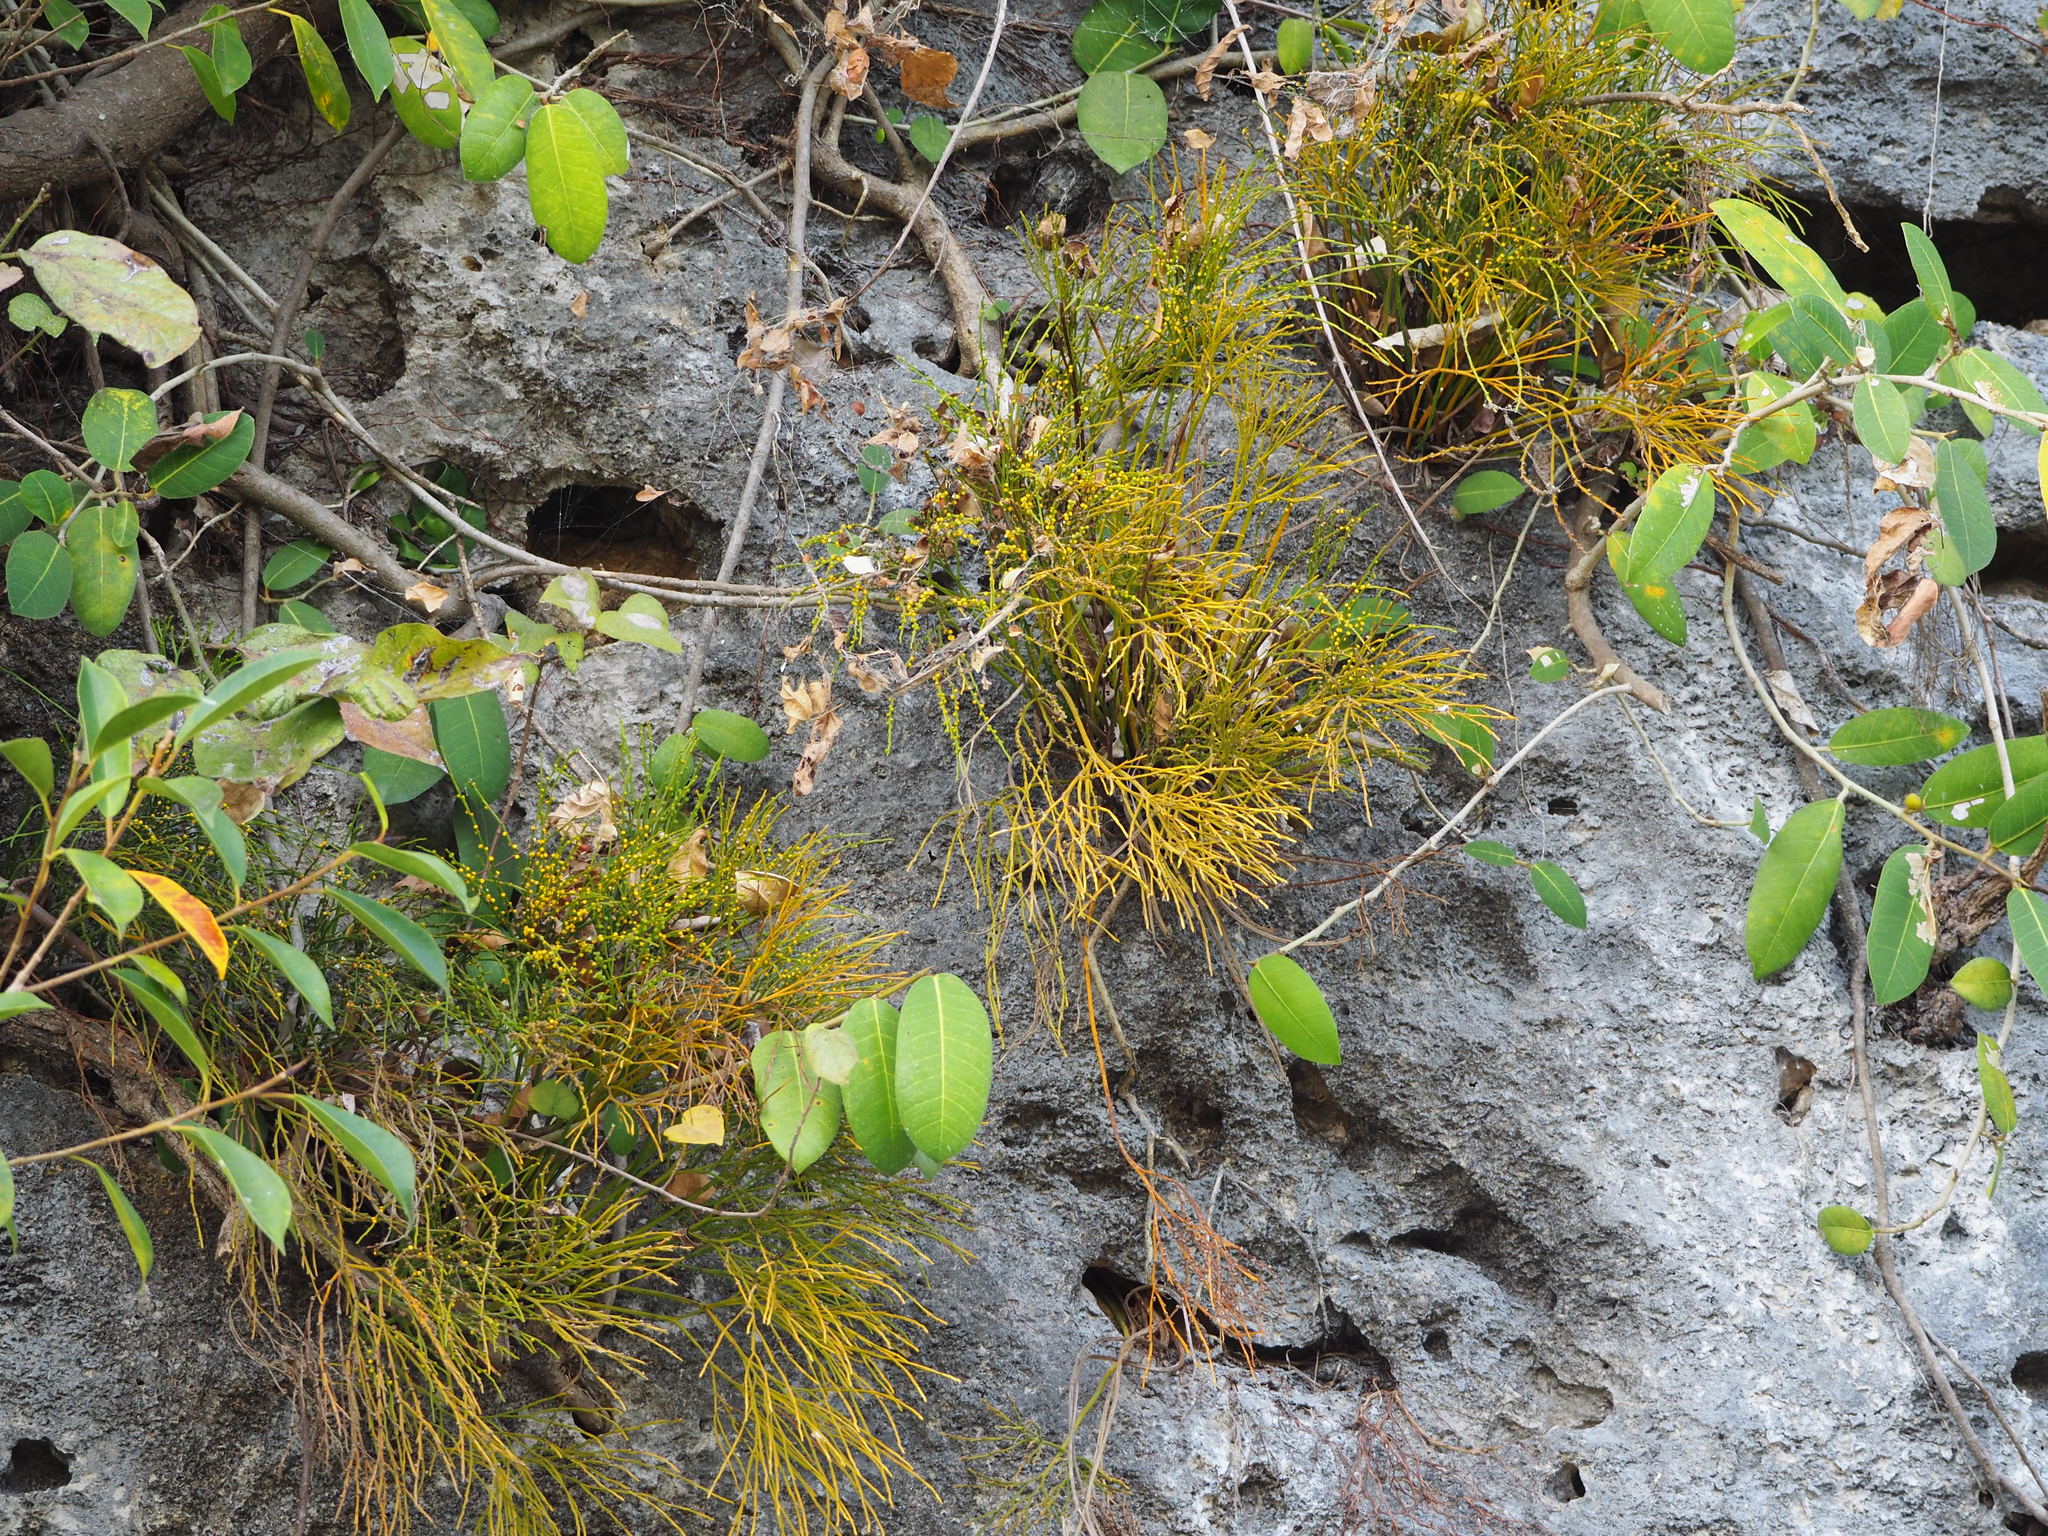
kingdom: Plantae
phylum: Tracheophyta
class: Polypodiopsida
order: Psilotales
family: Psilotaceae
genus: Psilotum
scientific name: Psilotum nudum
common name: Skeleton fork fern
